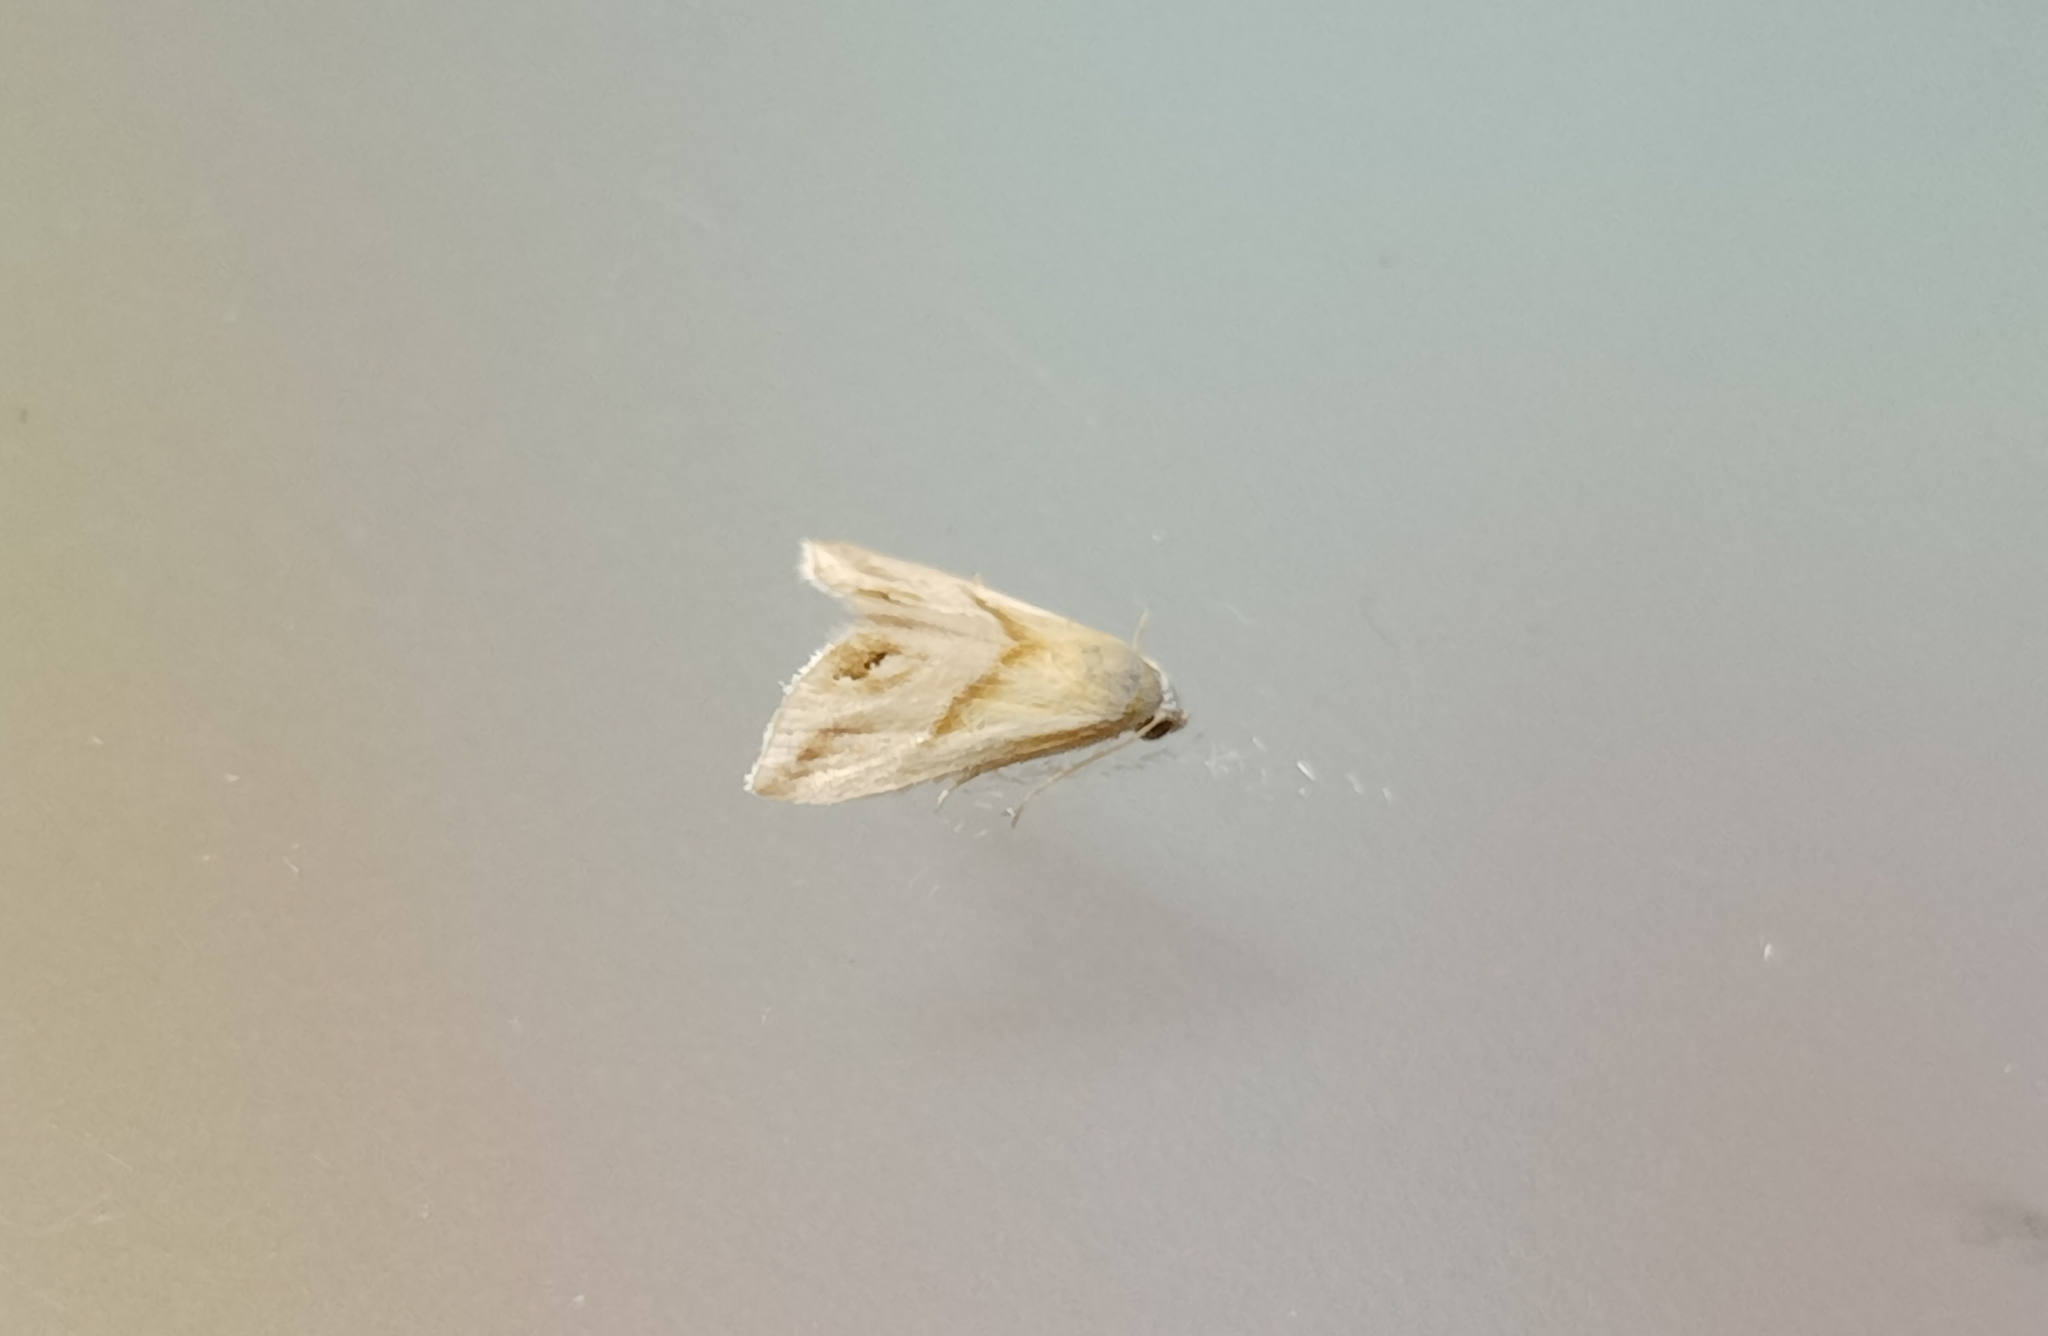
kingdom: Animalia
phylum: Arthropoda
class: Insecta
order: Lepidoptera
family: Noctuidae
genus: Eublemma
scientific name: Eublemma cochylioides
